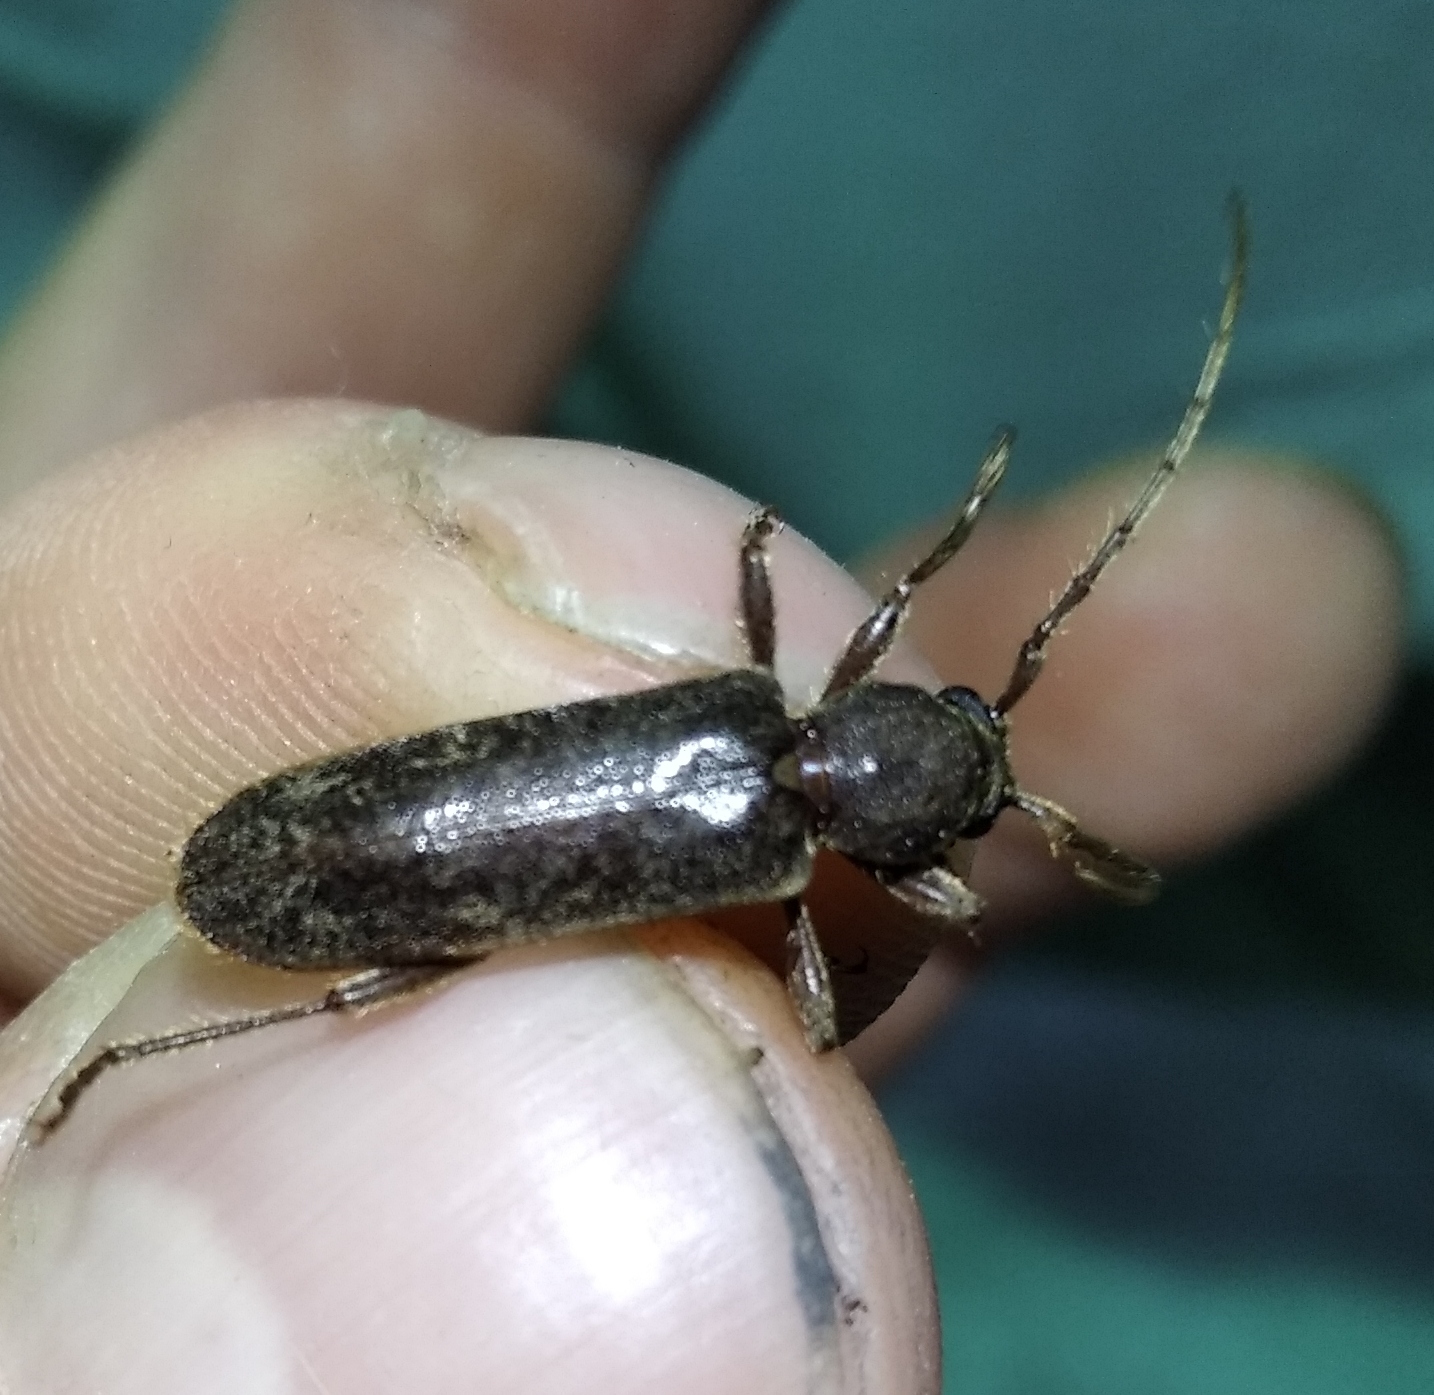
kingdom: Animalia
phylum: Arthropoda
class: Insecta
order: Coleoptera
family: Cerambycidae
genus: Trichoferus
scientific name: Trichoferus campestris
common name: Velvet long horned beetle
